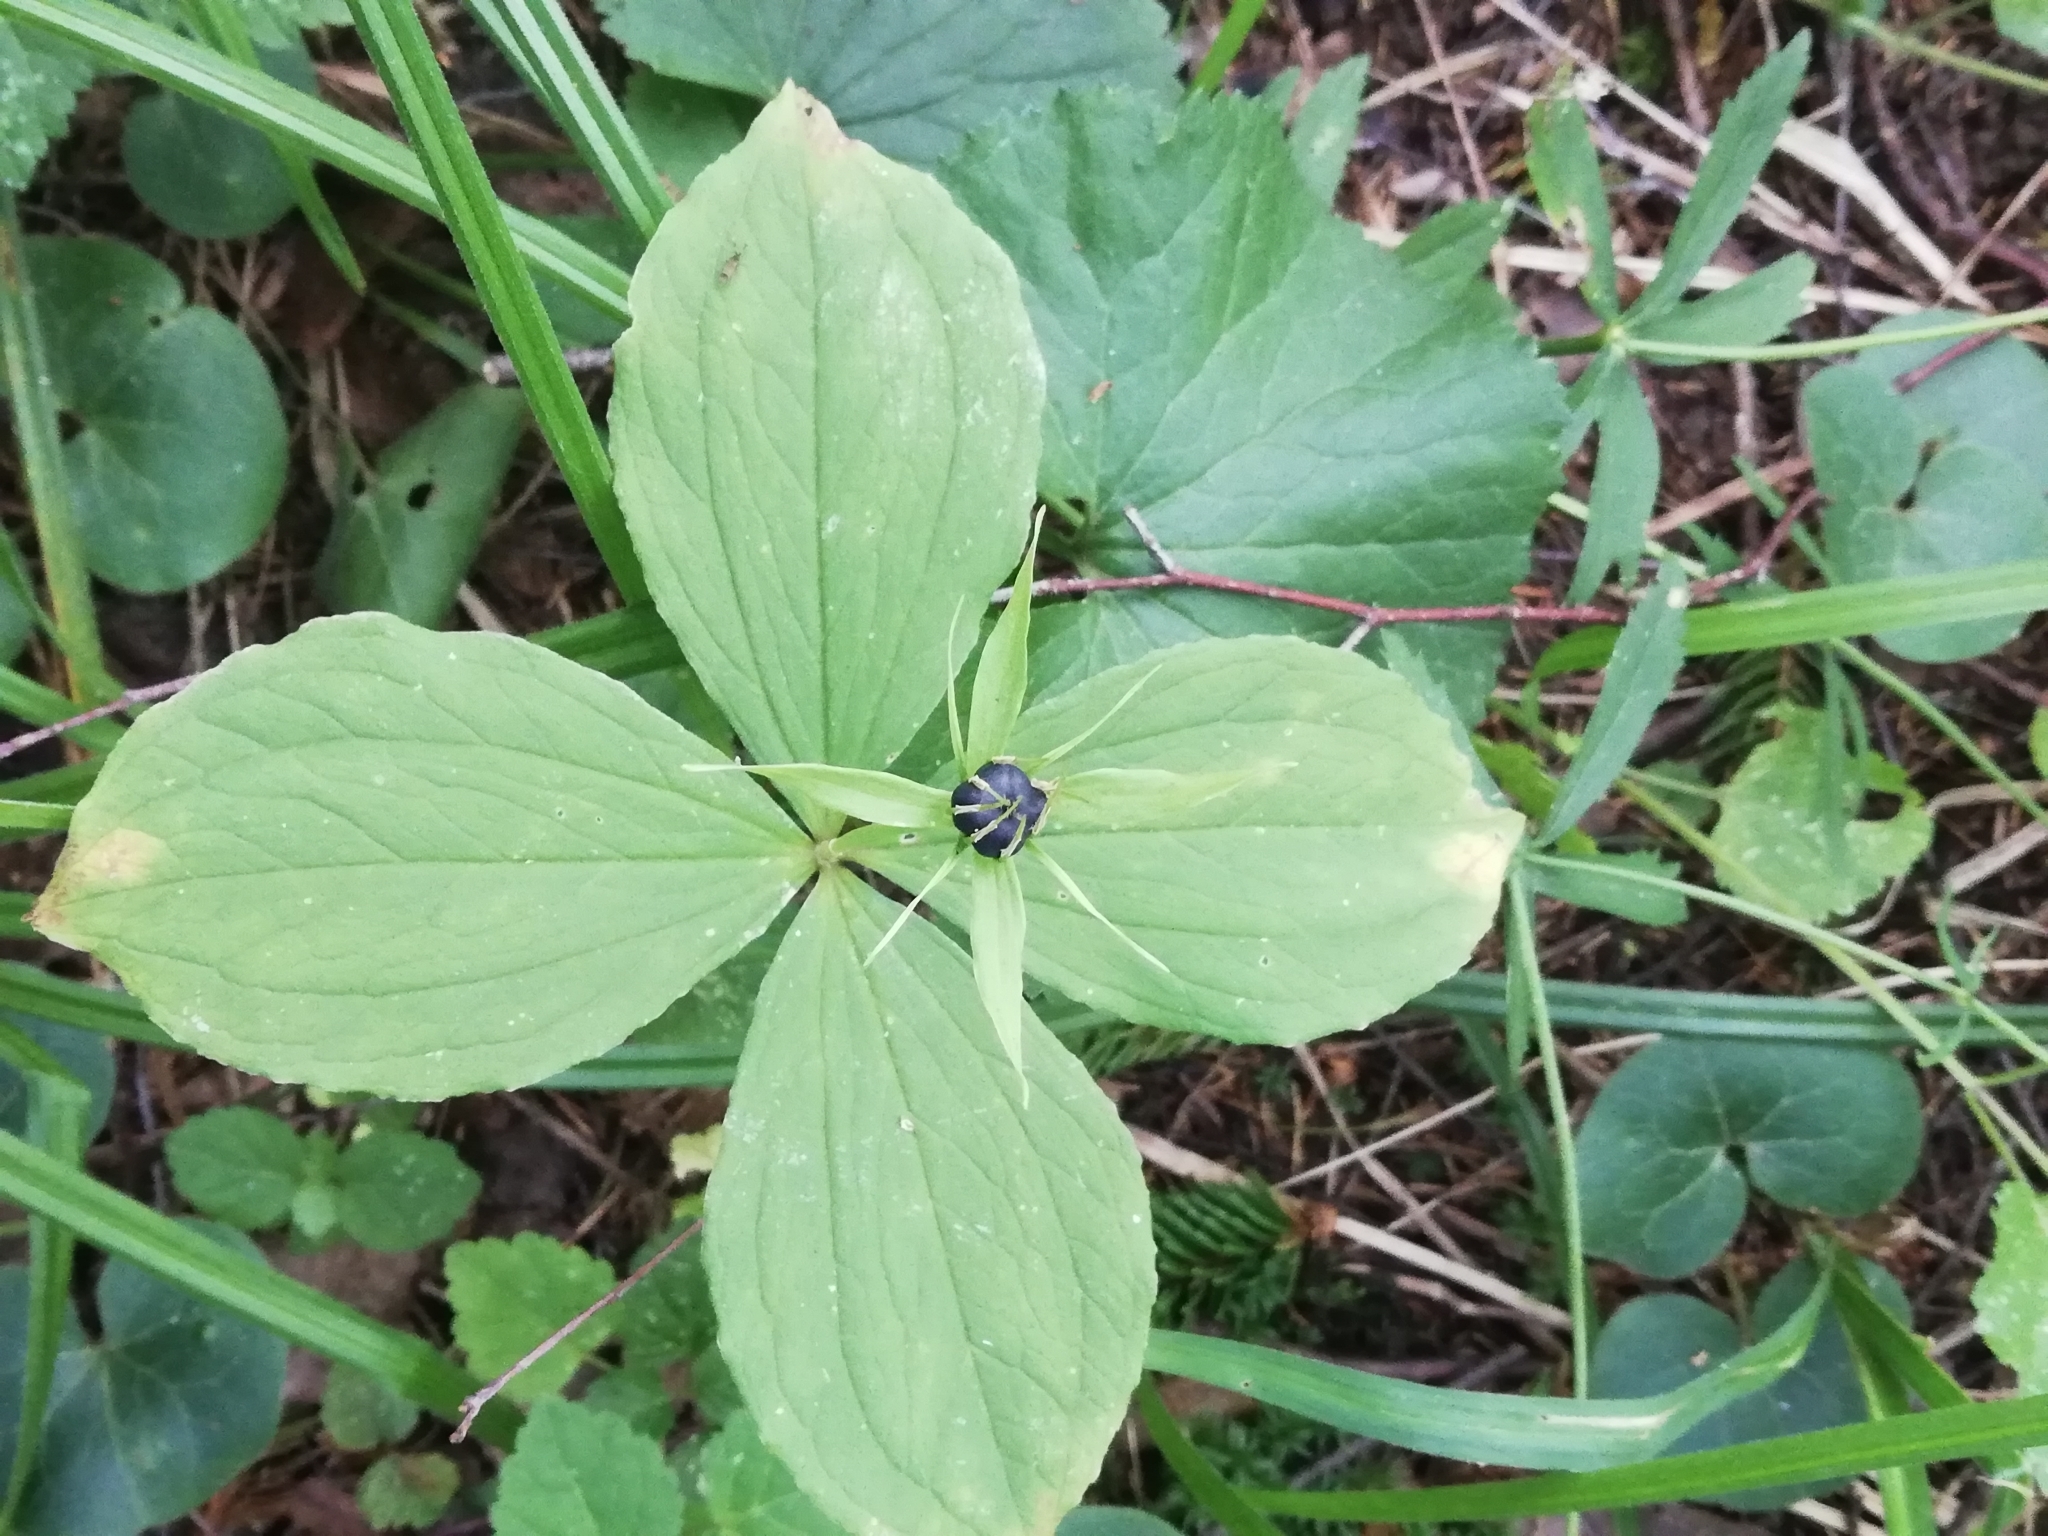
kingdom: Plantae
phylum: Tracheophyta
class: Liliopsida
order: Liliales
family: Melanthiaceae
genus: Paris
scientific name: Paris quadrifolia
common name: Herb-paris
